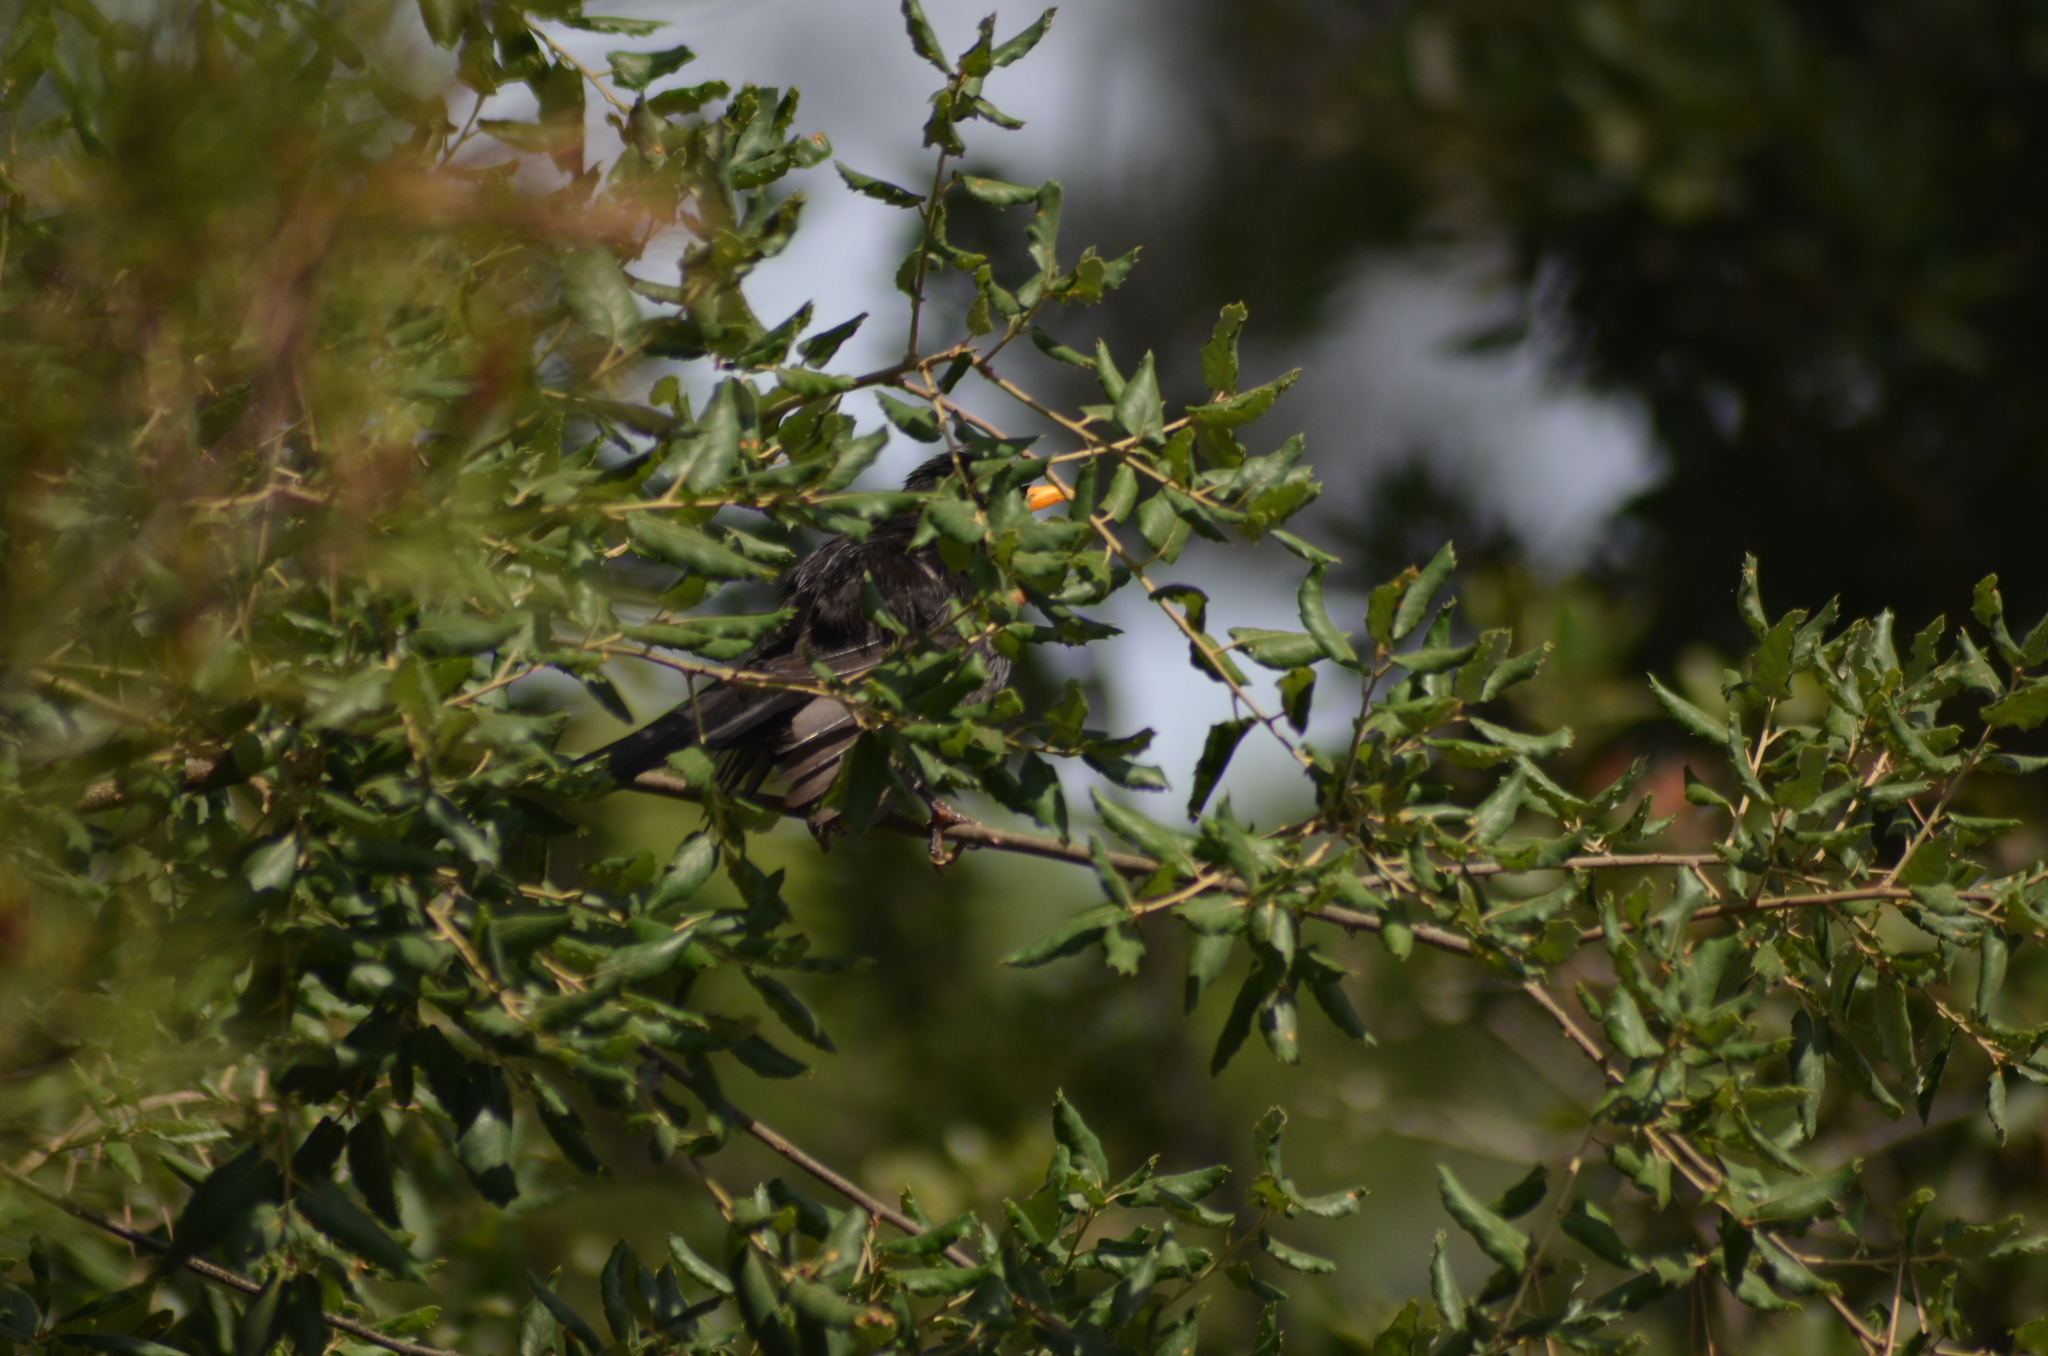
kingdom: Animalia
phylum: Chordata
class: Aves
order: Passeriformes
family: Turdidae
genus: Turdus
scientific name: Turdus merula
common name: Common blackbird
